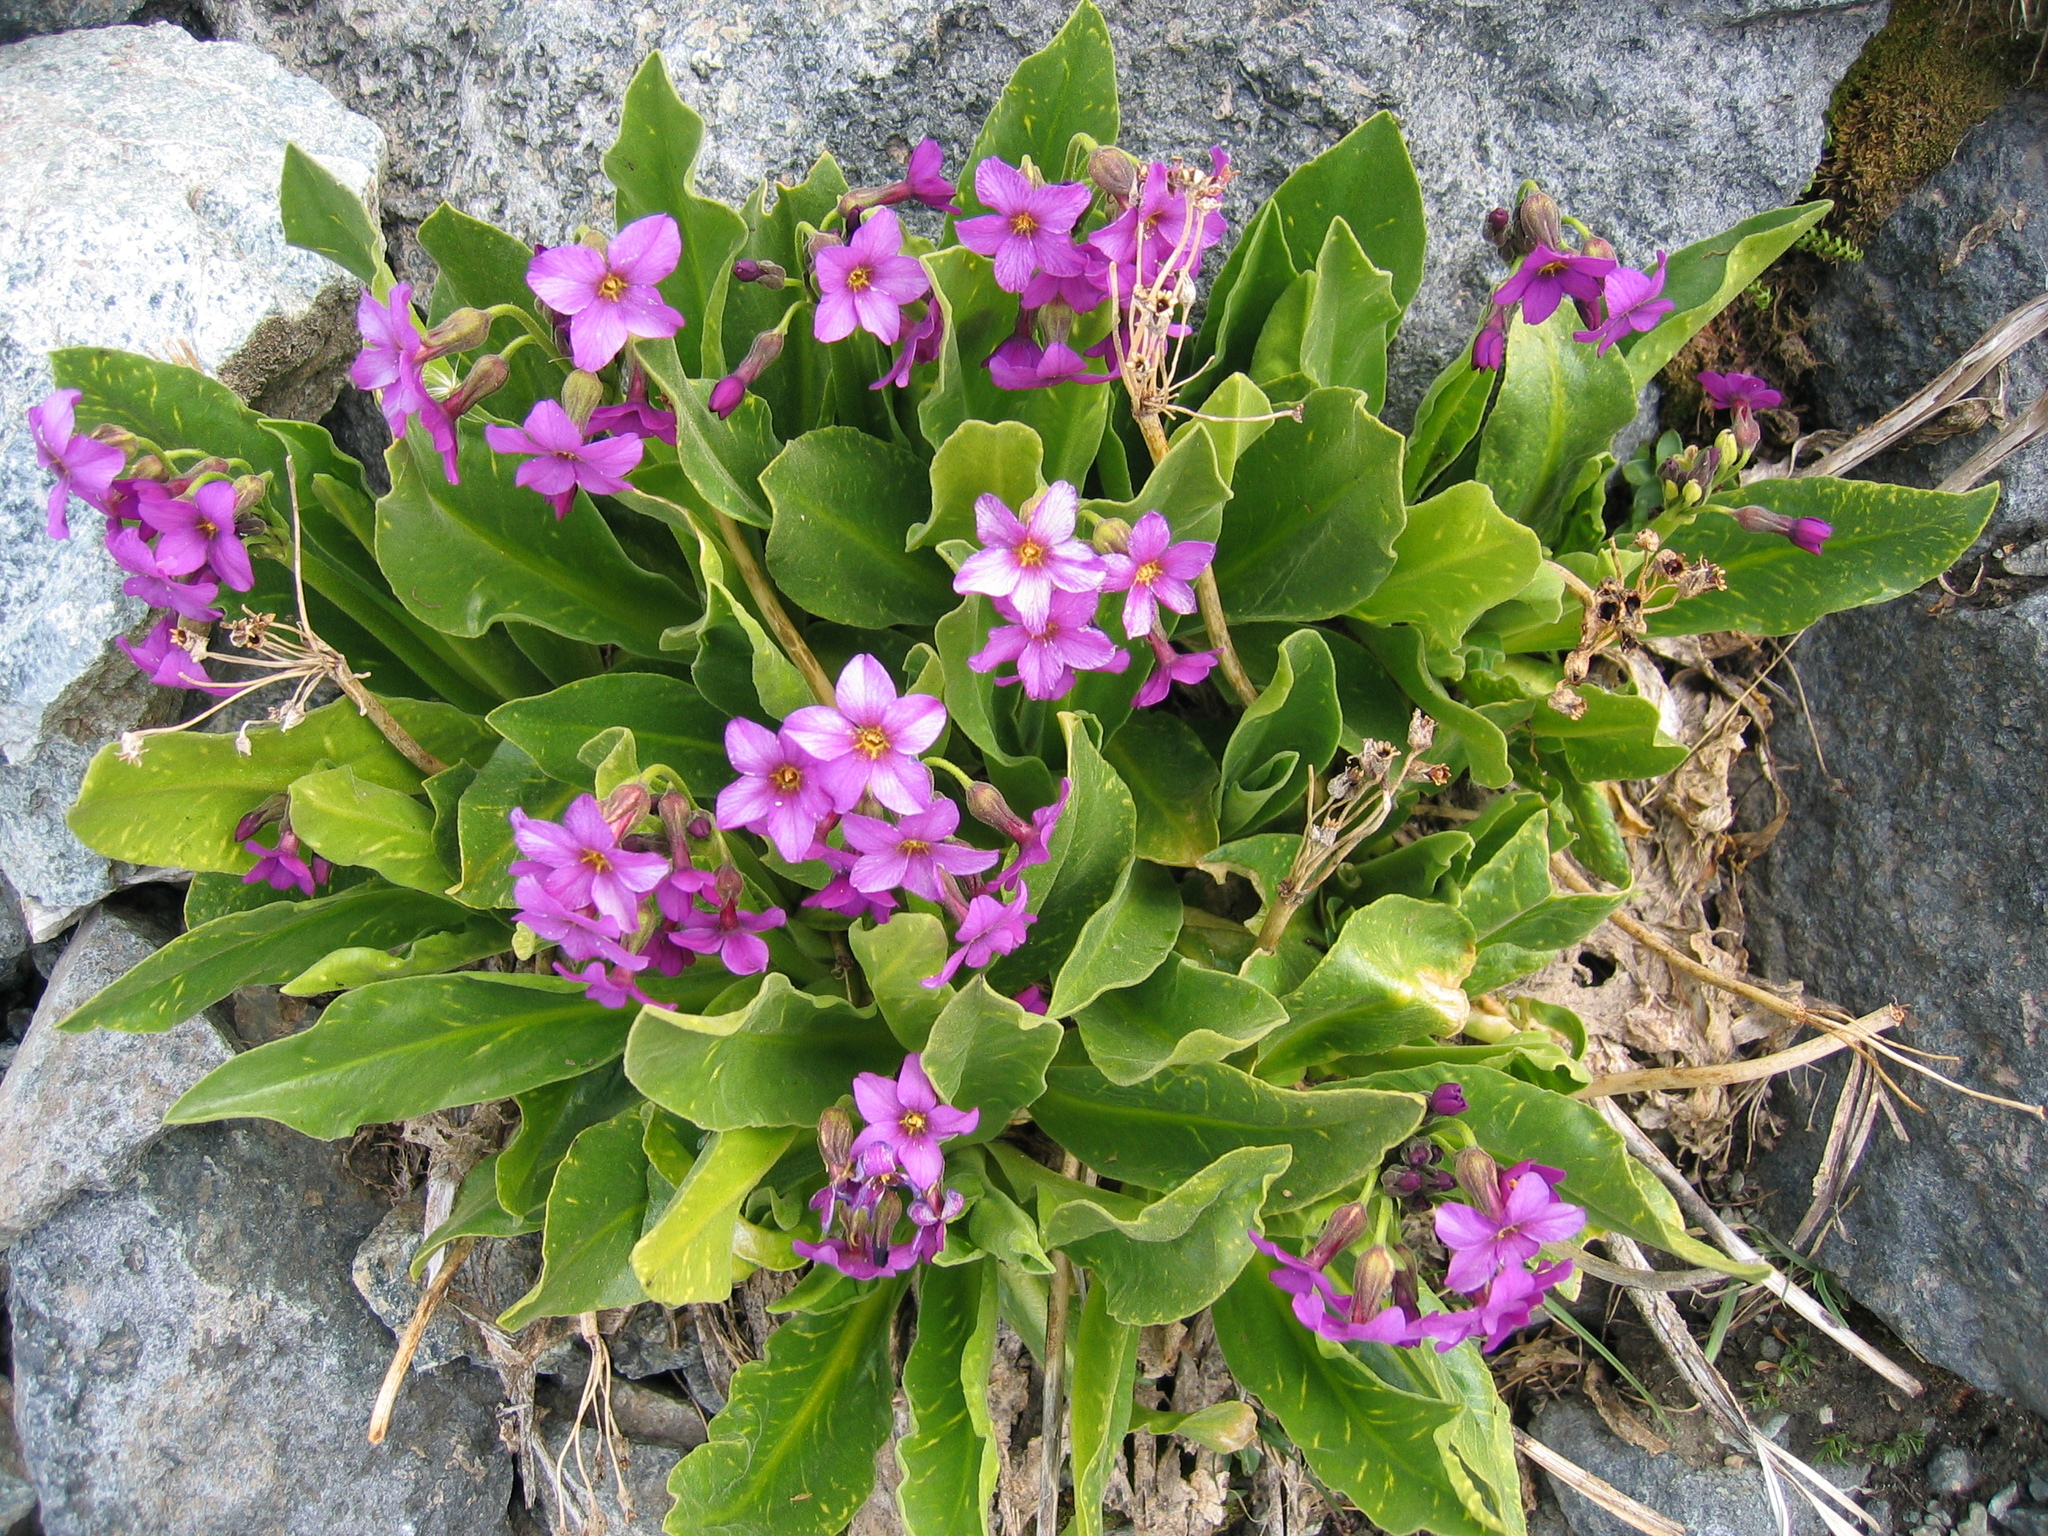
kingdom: Plantae
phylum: Tracheophyta
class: Magnoliopsida
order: Ericales
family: Primulaceae
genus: Primula
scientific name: Primula parryi
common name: Parry's primrose
